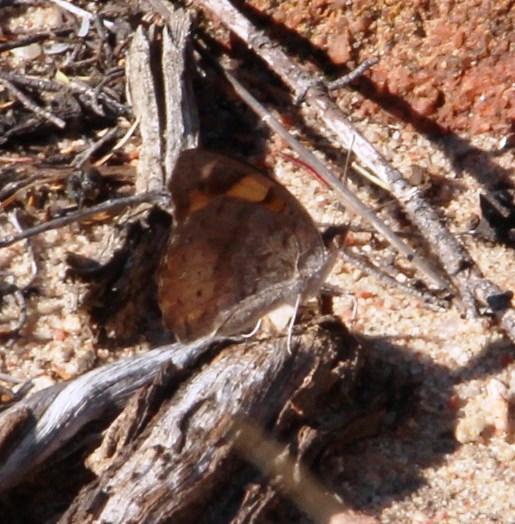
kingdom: Animalia
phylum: Arthropoda
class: Insecta
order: Lepidoptera
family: Nymphalidae
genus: Junonia
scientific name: Junonia hierta
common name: Yellow pansy
